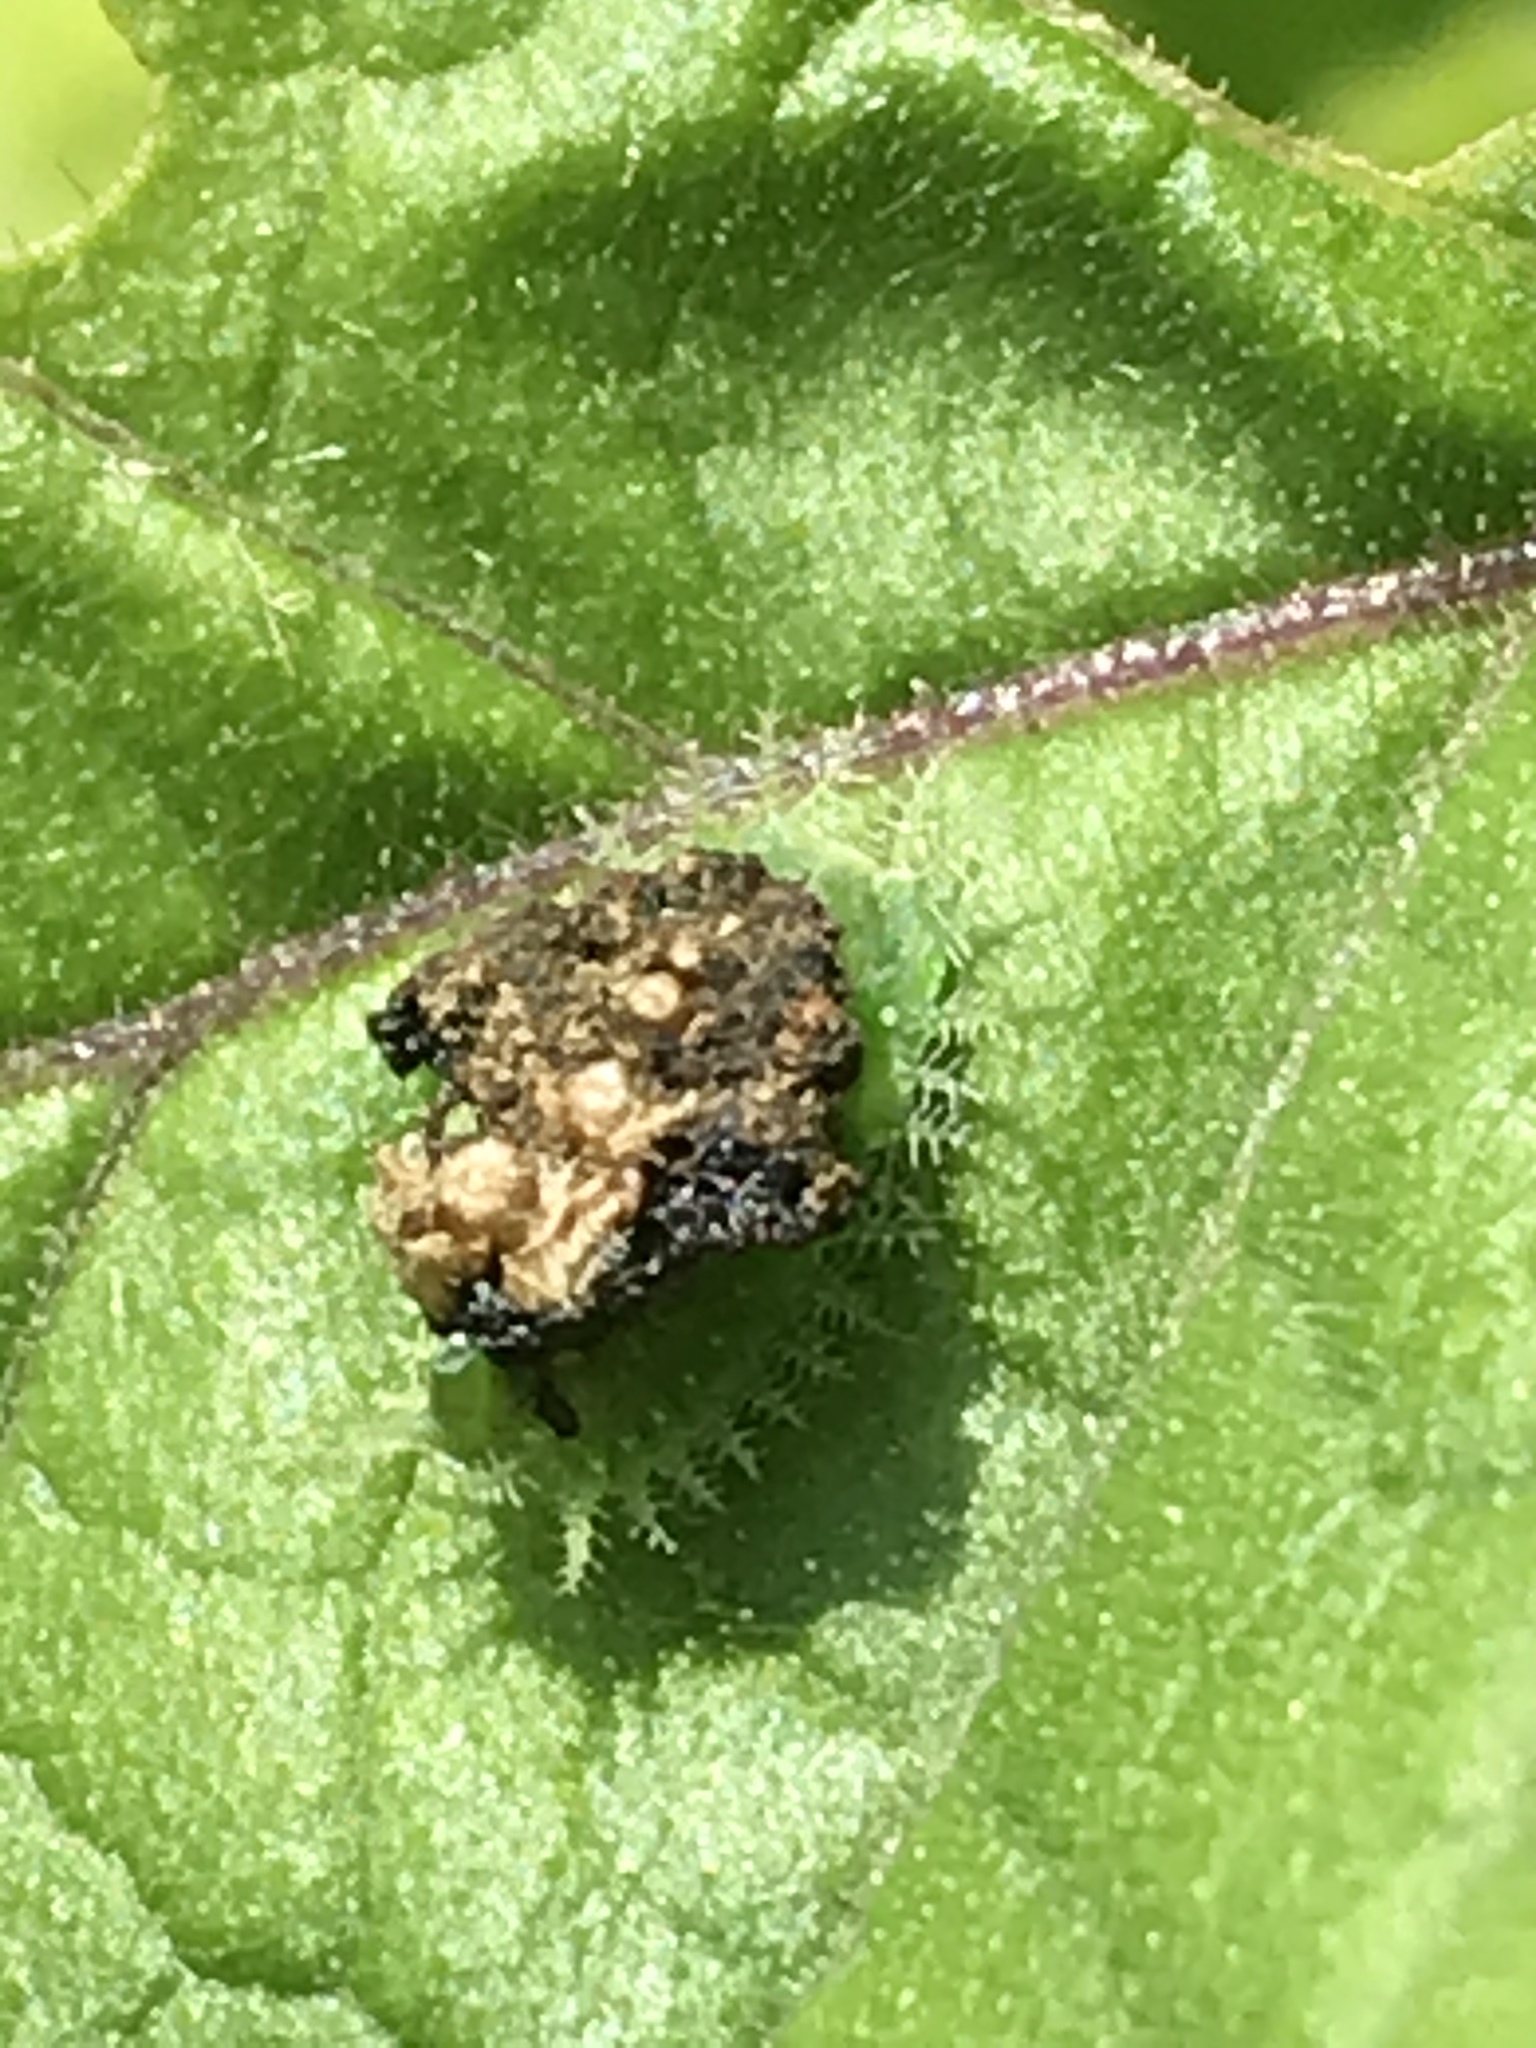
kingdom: Animalia
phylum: Arthropoda
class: Insecta
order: Coleoptera
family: Chrysomelidae
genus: Helocassis
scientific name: Helocassis clavata
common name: Clavate tortoise beetle
